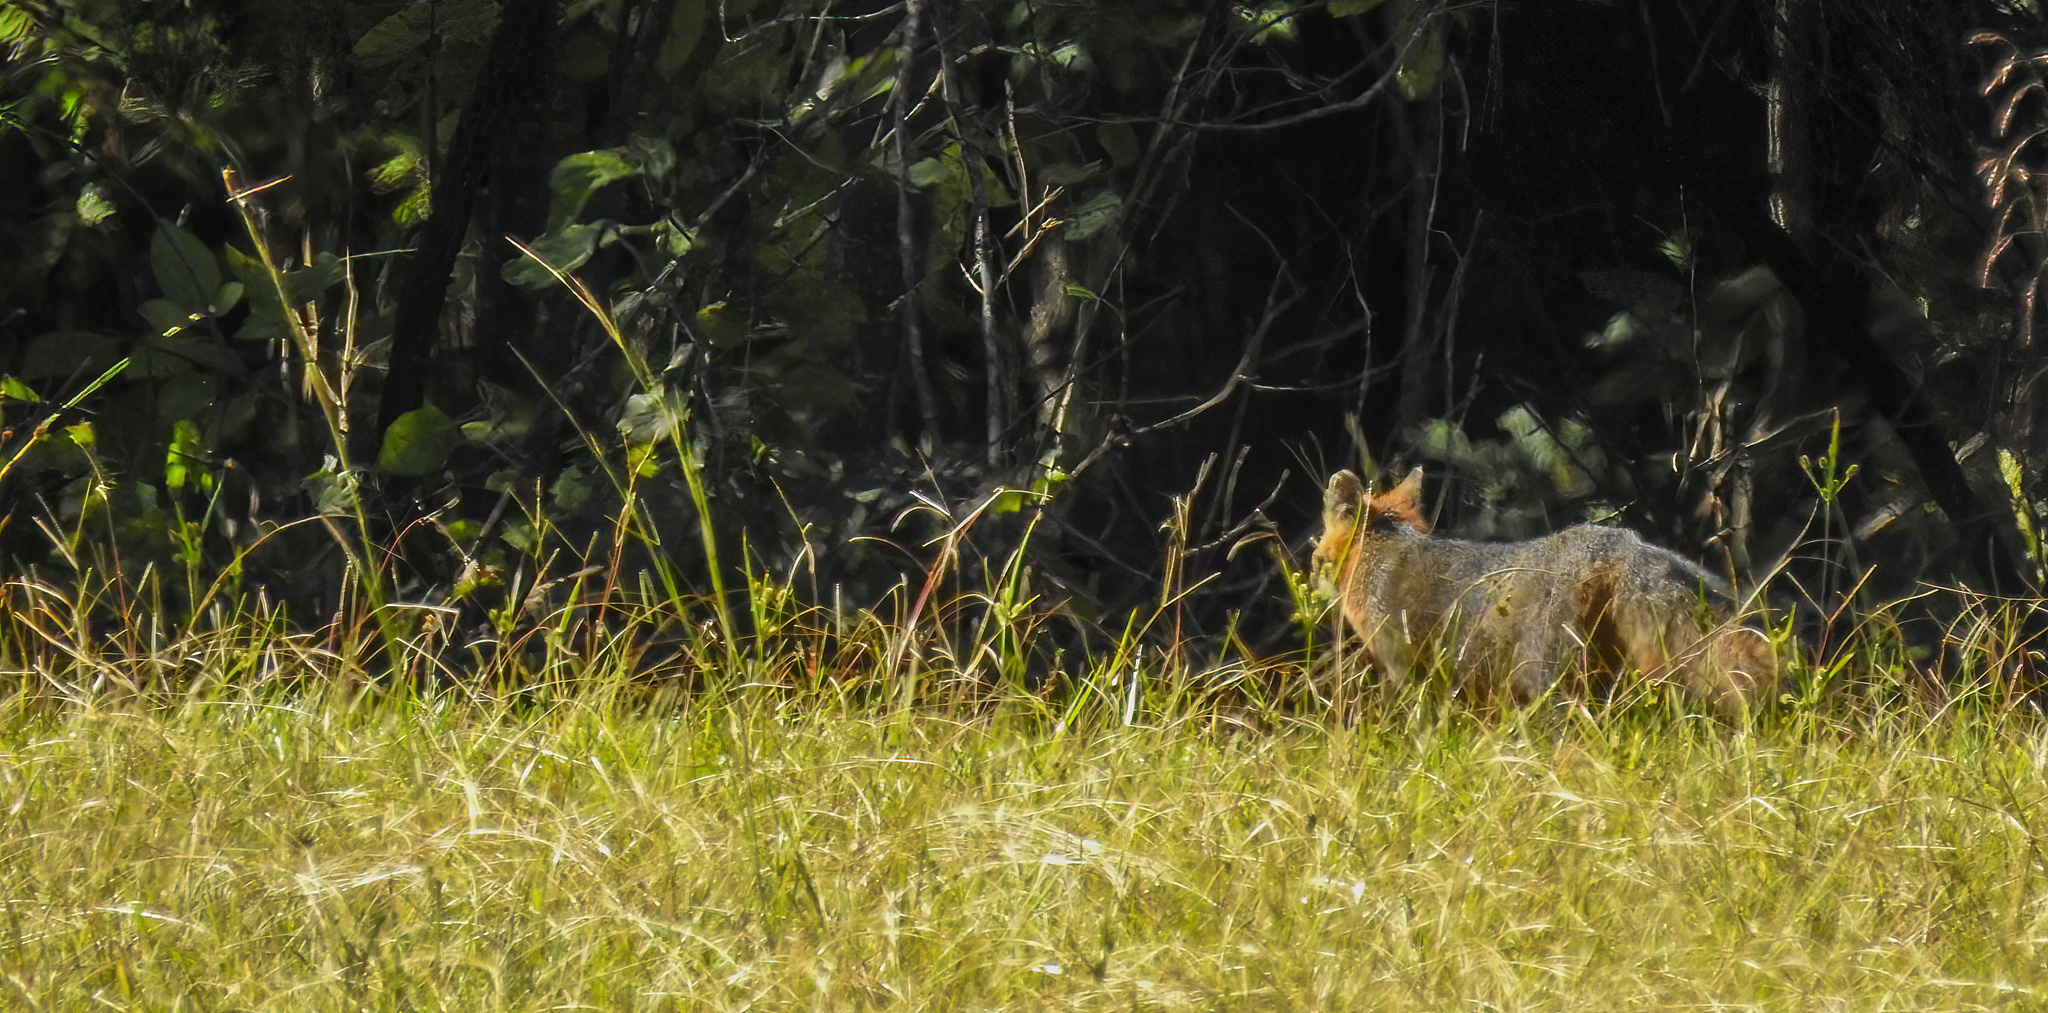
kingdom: Animalia
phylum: Chordata
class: Mammalia
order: Carnivora
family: Canidae
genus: Urocyon
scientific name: Urocyon cinereoargenteus
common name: Gray fox
